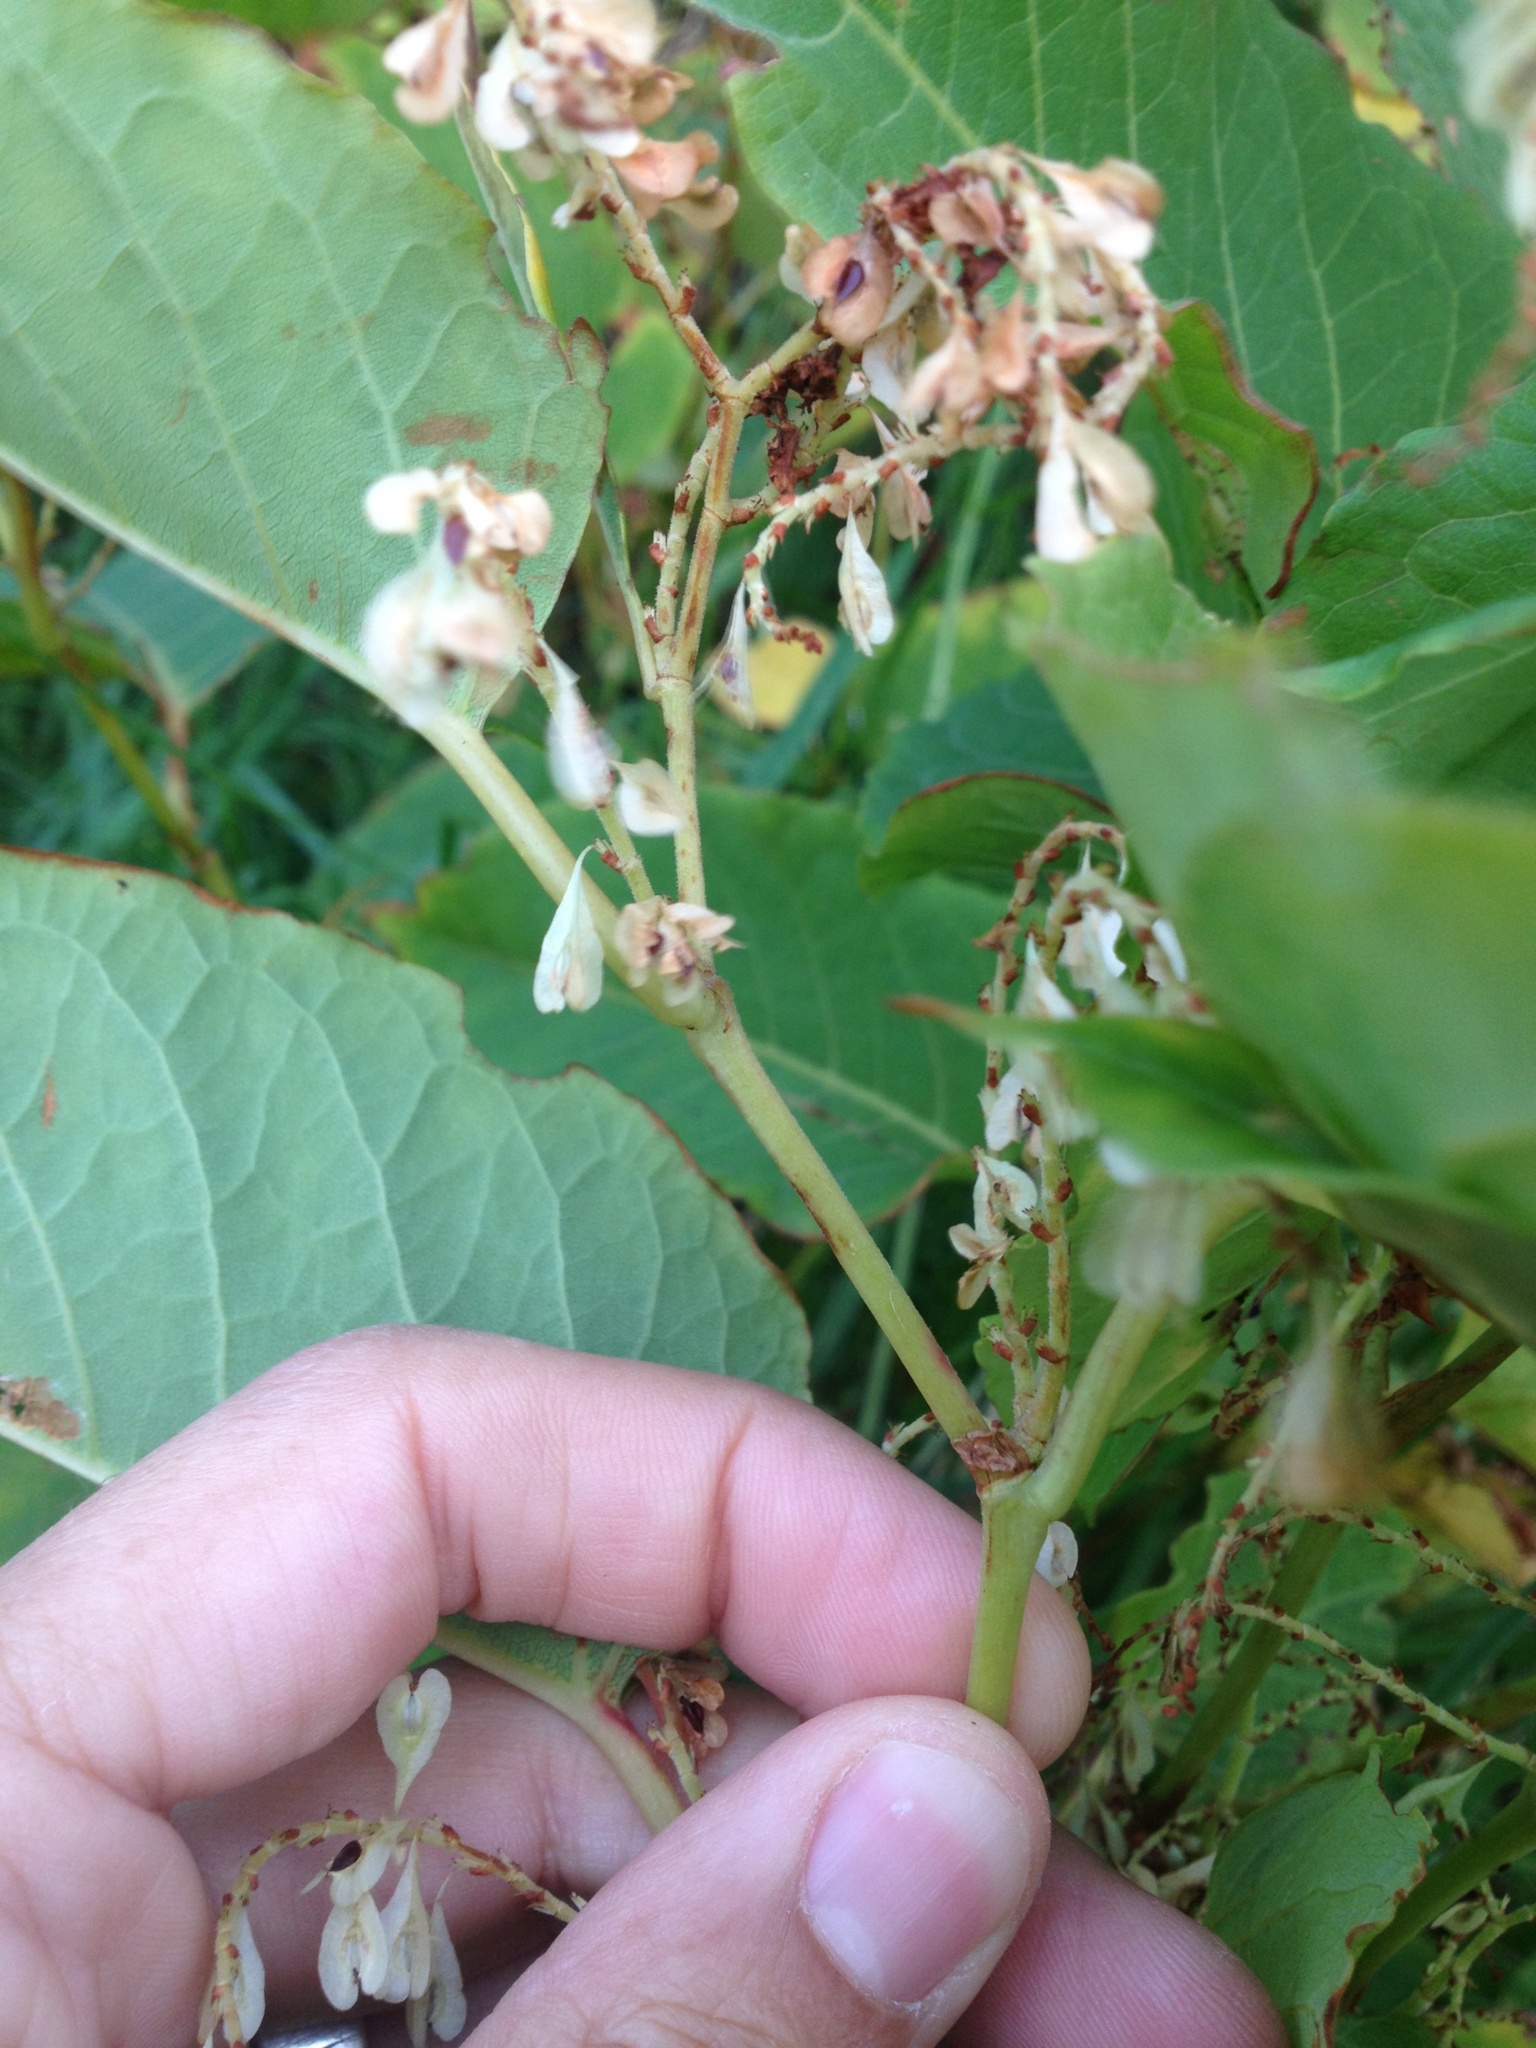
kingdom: Plantae
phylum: Tracheophyta
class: Magnoliopsida
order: Caryophyllales
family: Polygonaceae
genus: Reynoutria
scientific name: Reynoutria japonica
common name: Japanese knotweed
